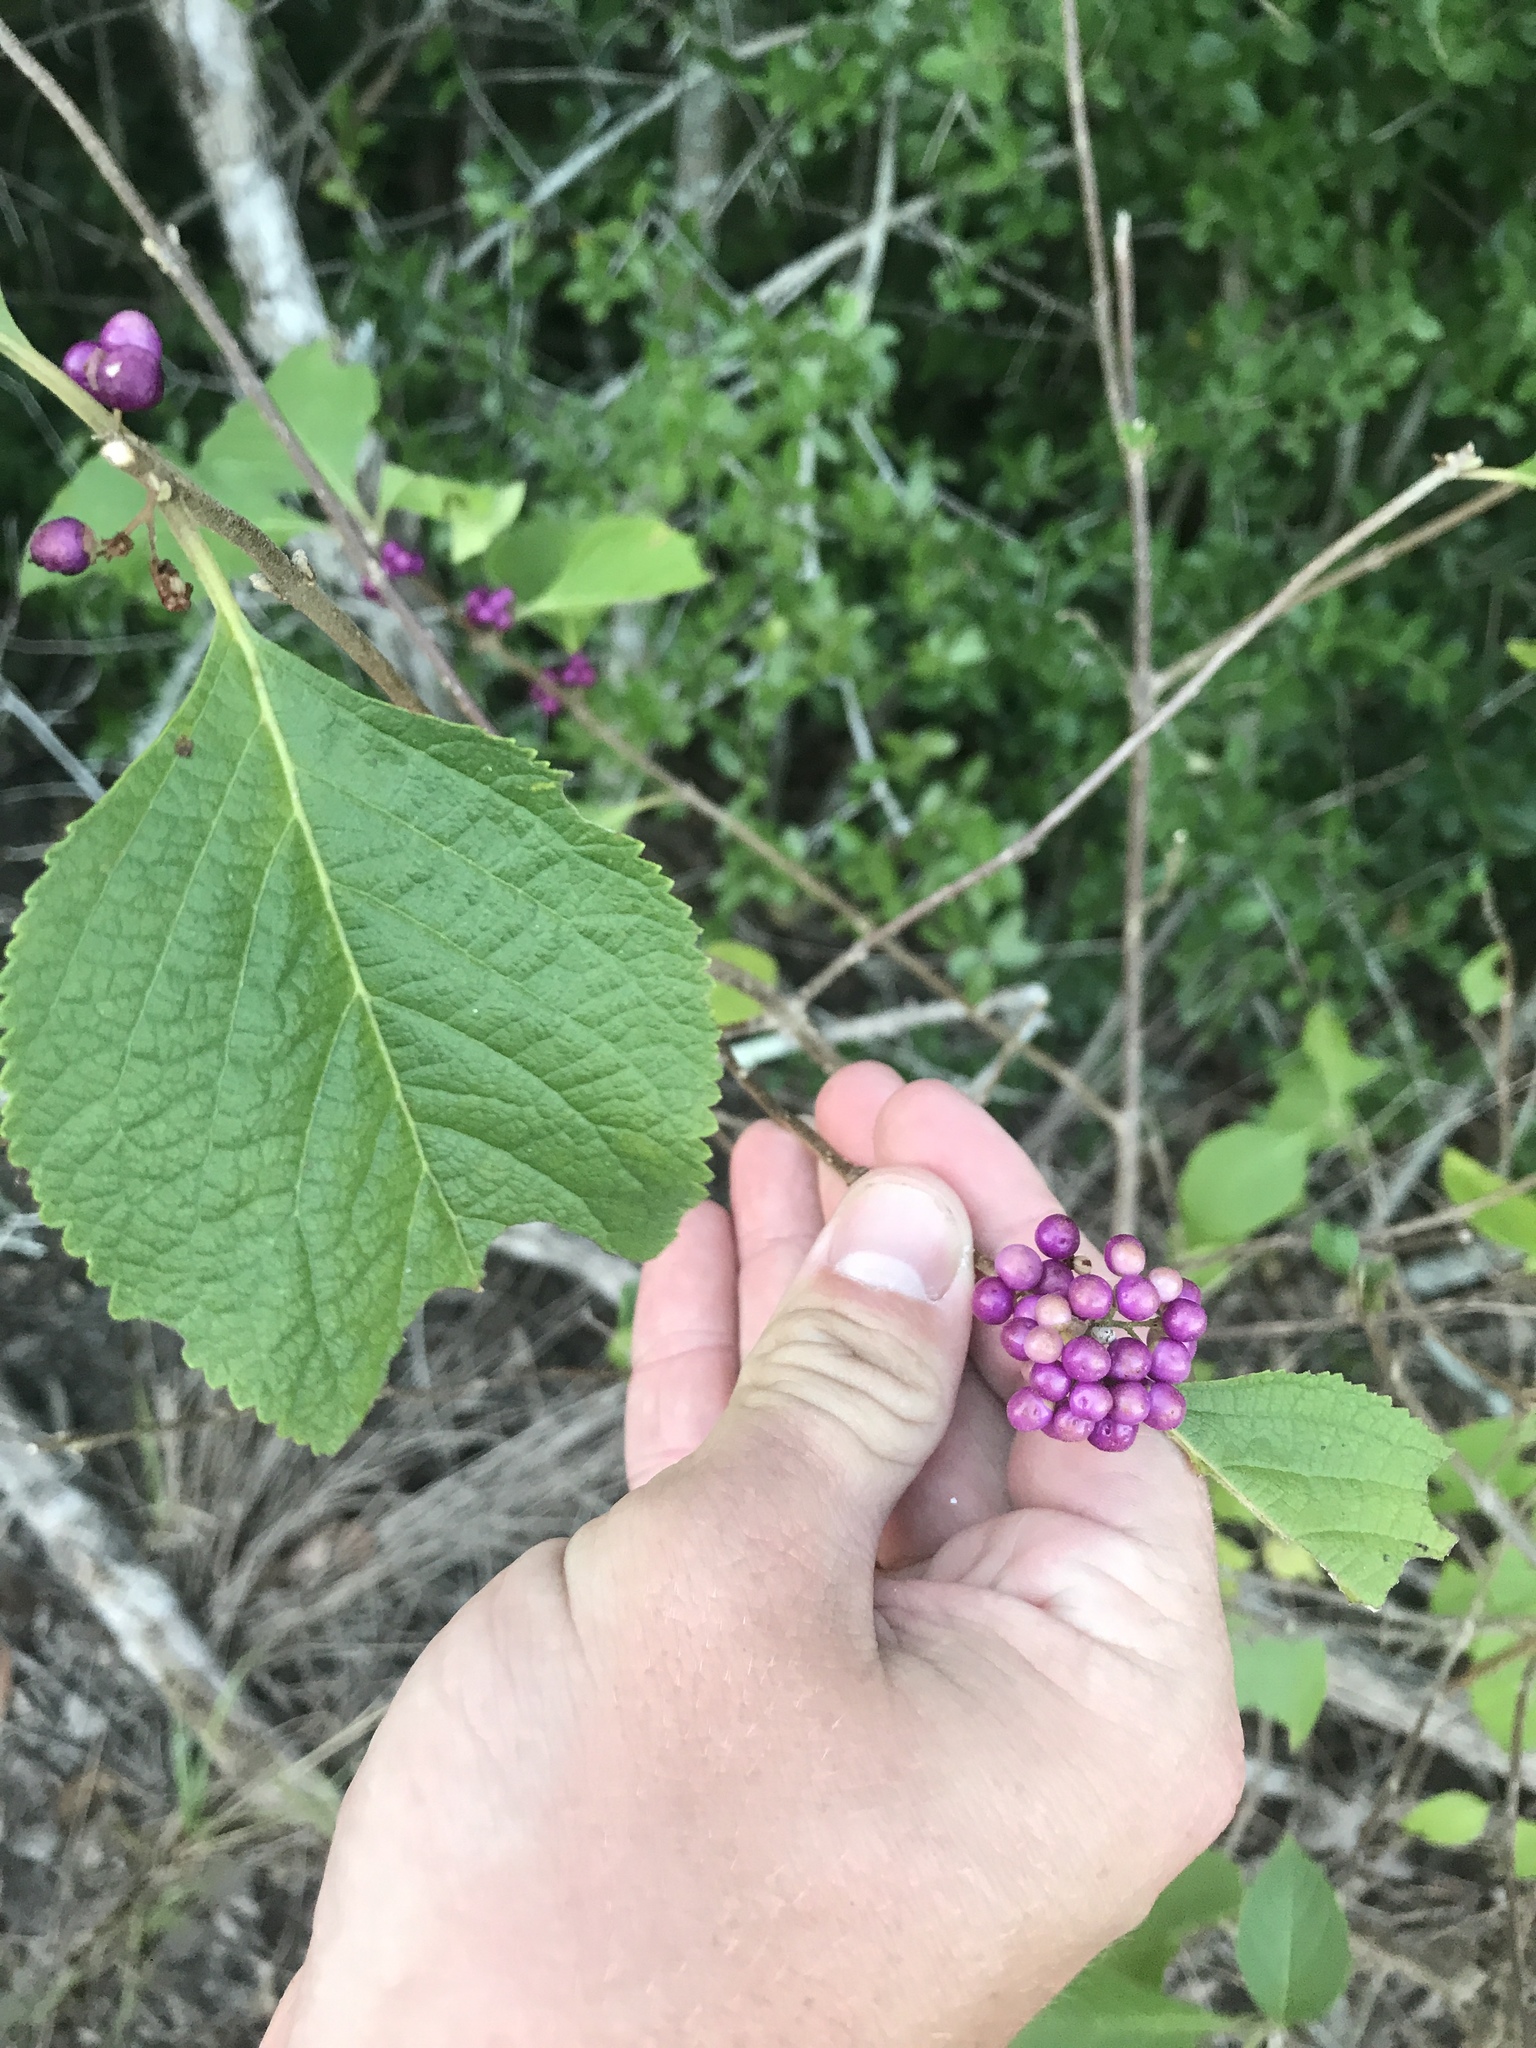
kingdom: Plantae
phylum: Tracheophyta
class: Magnoliopsida
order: Lamiales
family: Lamiaceae
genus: Callicarpa
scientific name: Callicarpa americana
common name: American beautyberry
